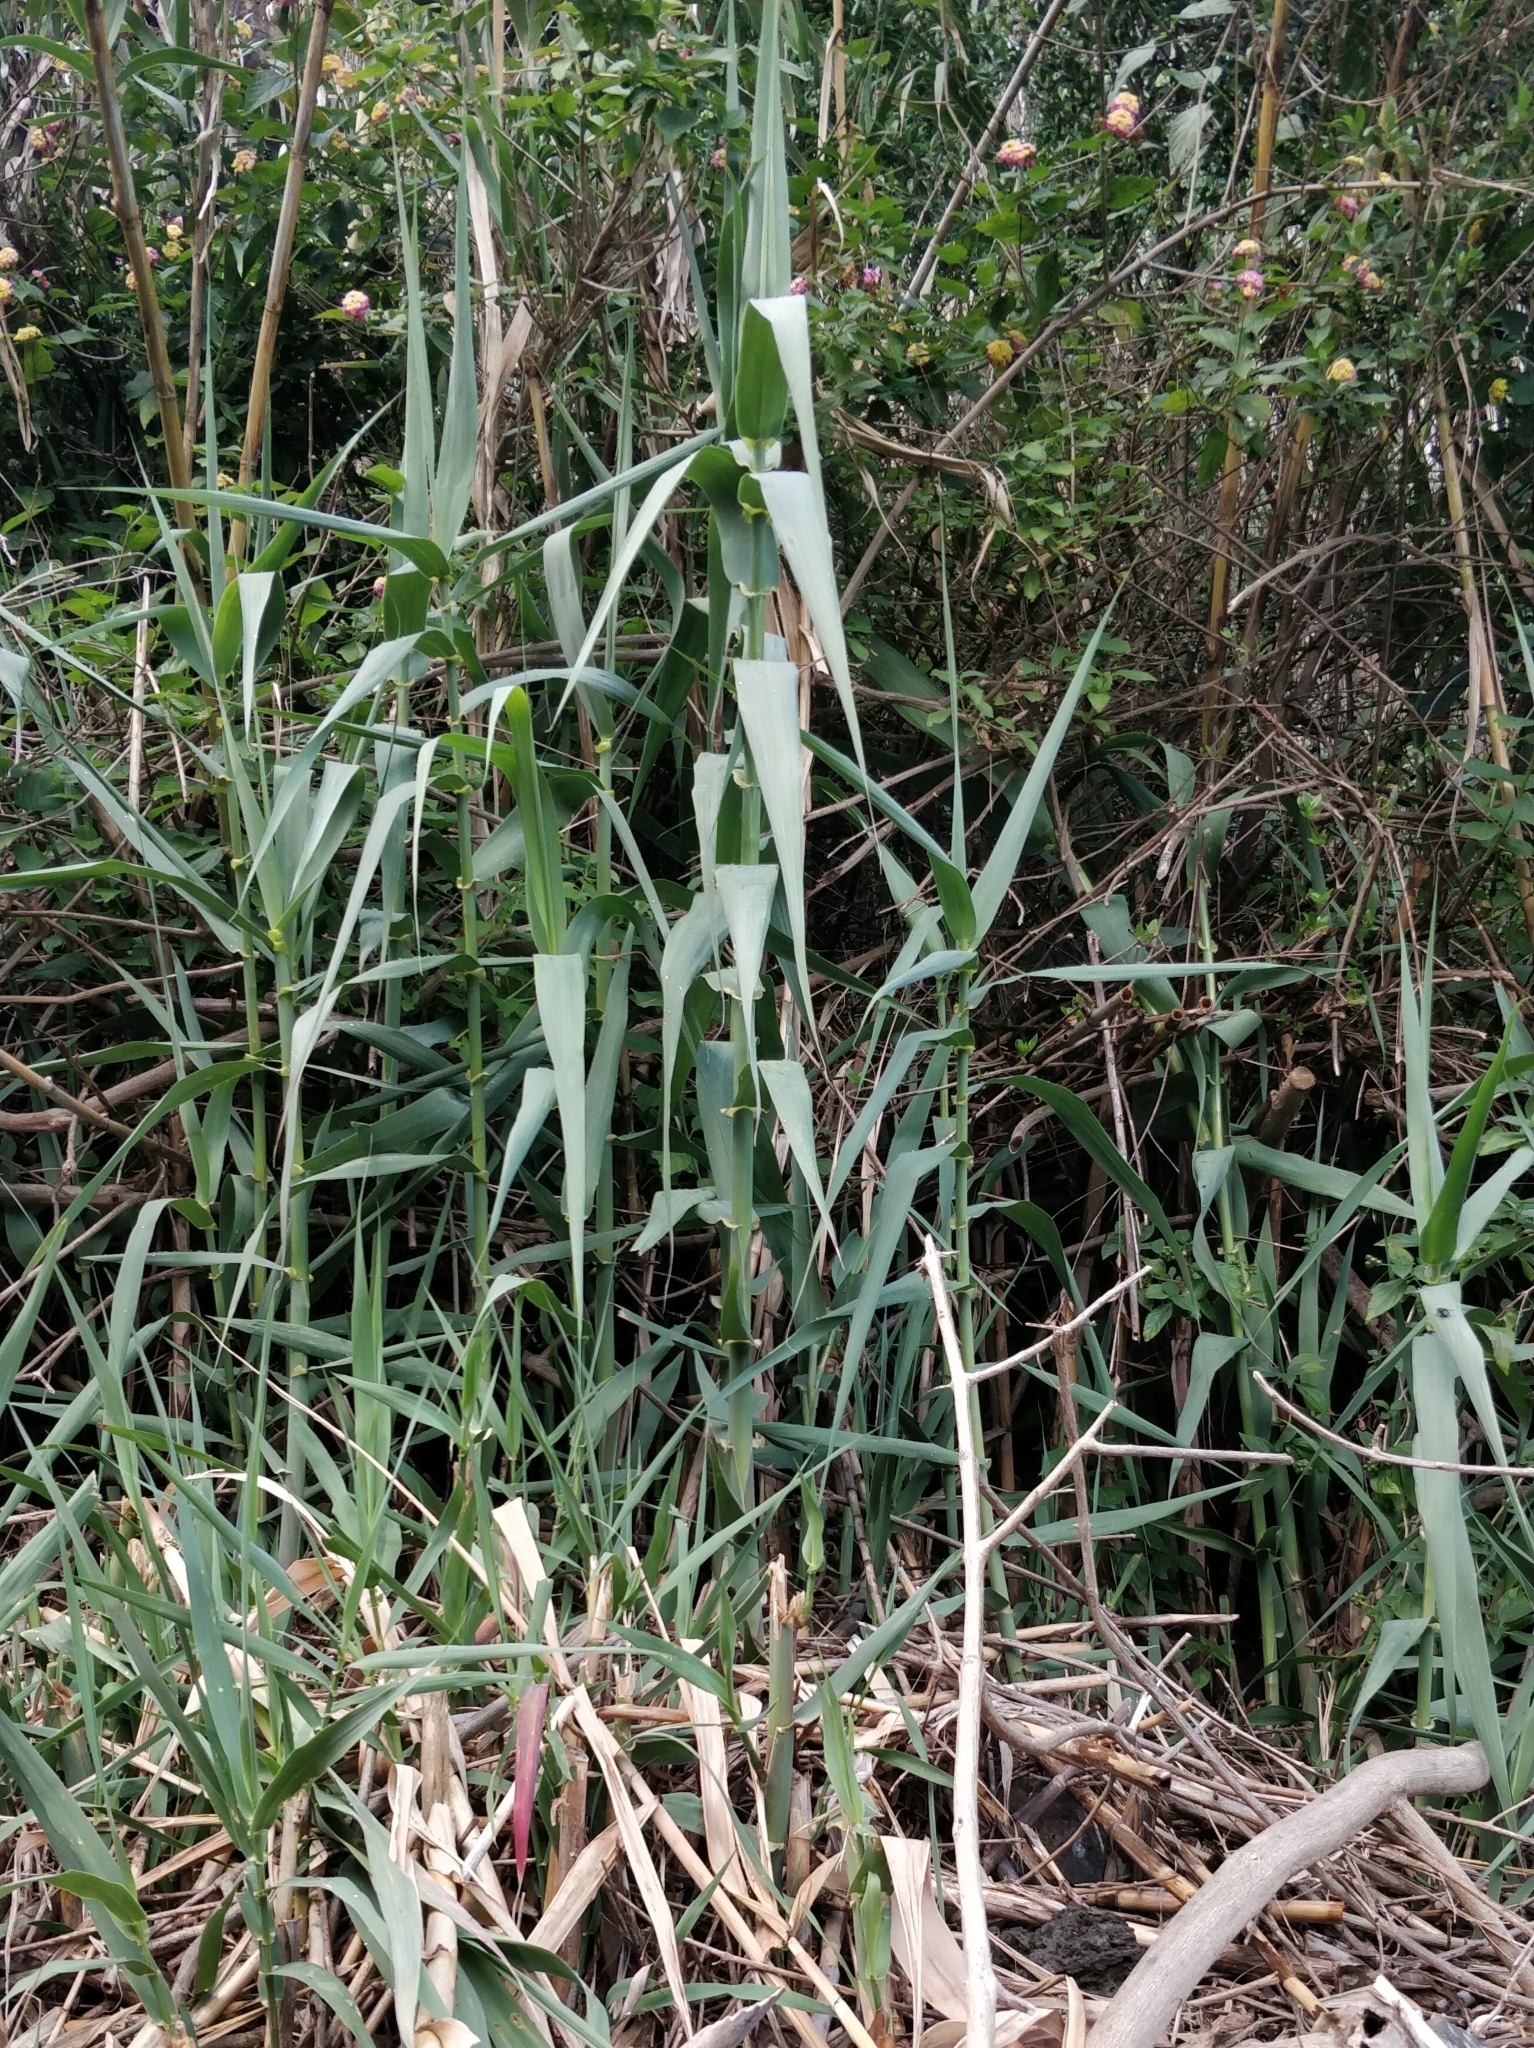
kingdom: Plantae
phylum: Tracheophyta
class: Liliopsida
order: Poales
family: Poaceae
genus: Arundo
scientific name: Arundo donax
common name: Giant reed
